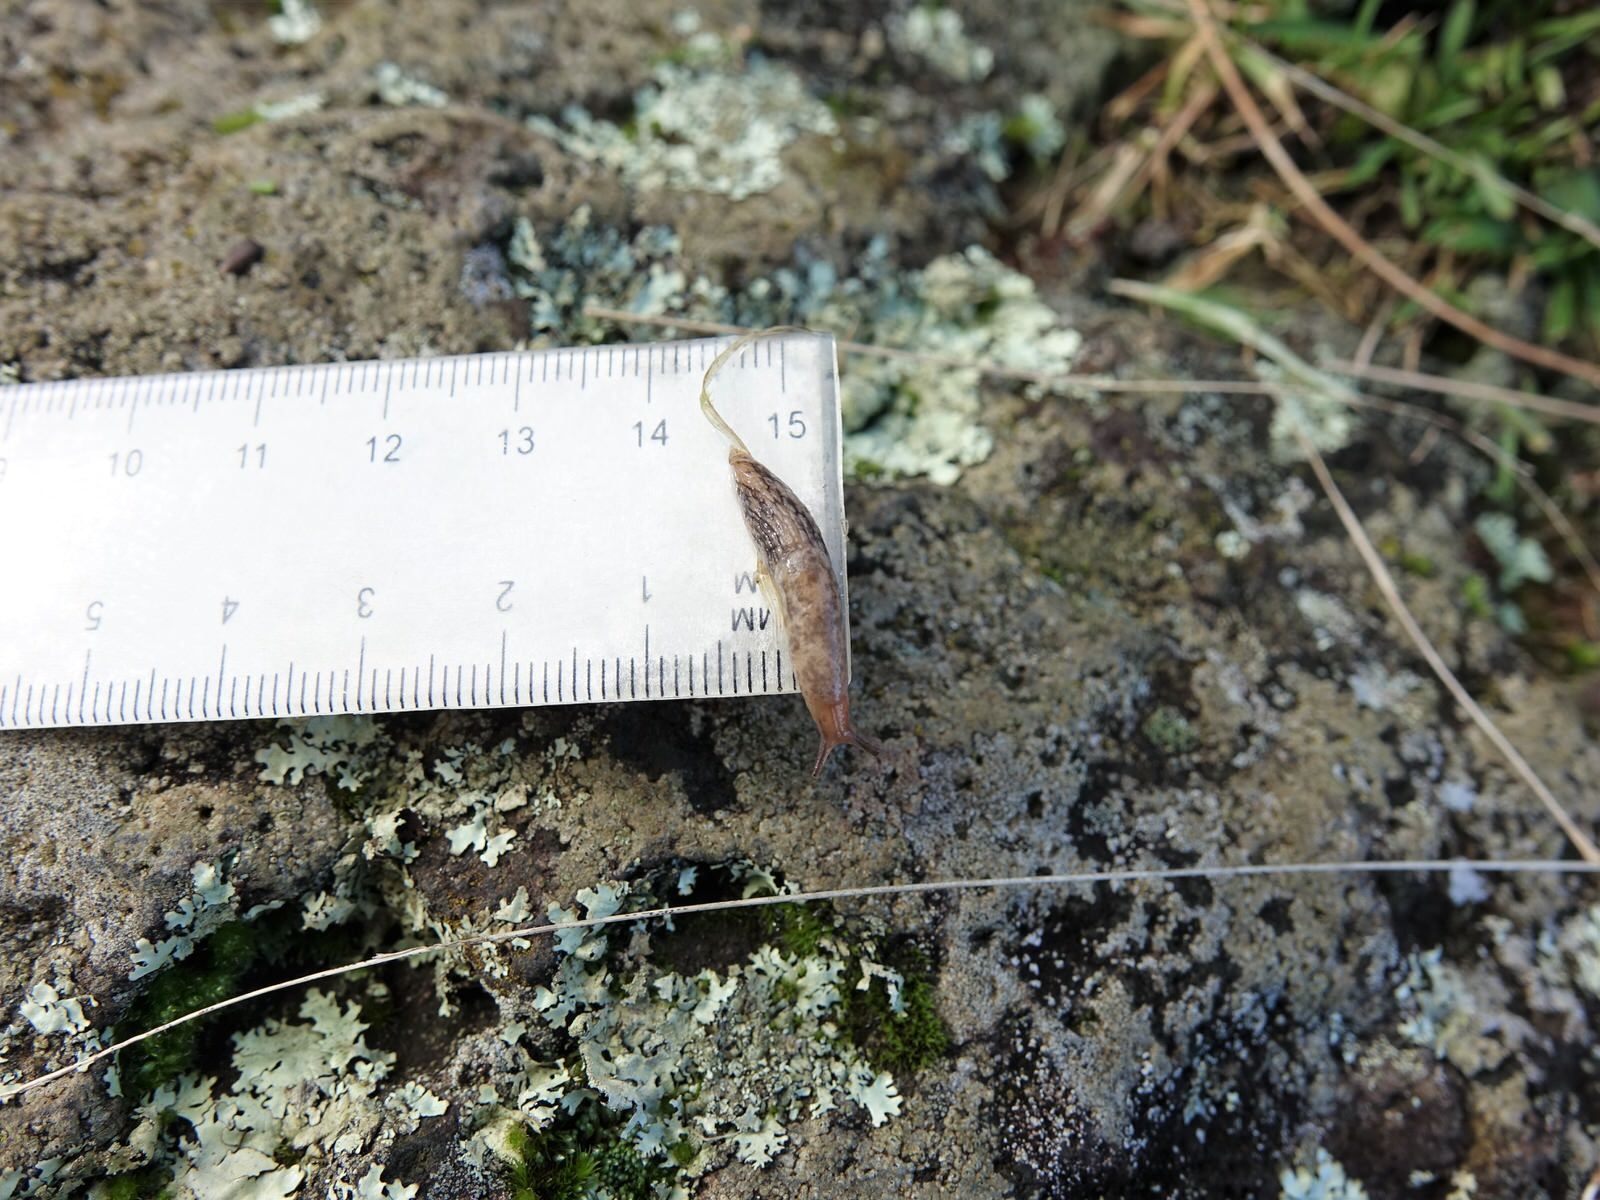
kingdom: Animalia
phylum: Mollusca
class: Gastropoda
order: Stylommatophora
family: Agriolimacidae
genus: Deroceras
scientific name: Deroceras reticulatum
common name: Gray field slug
